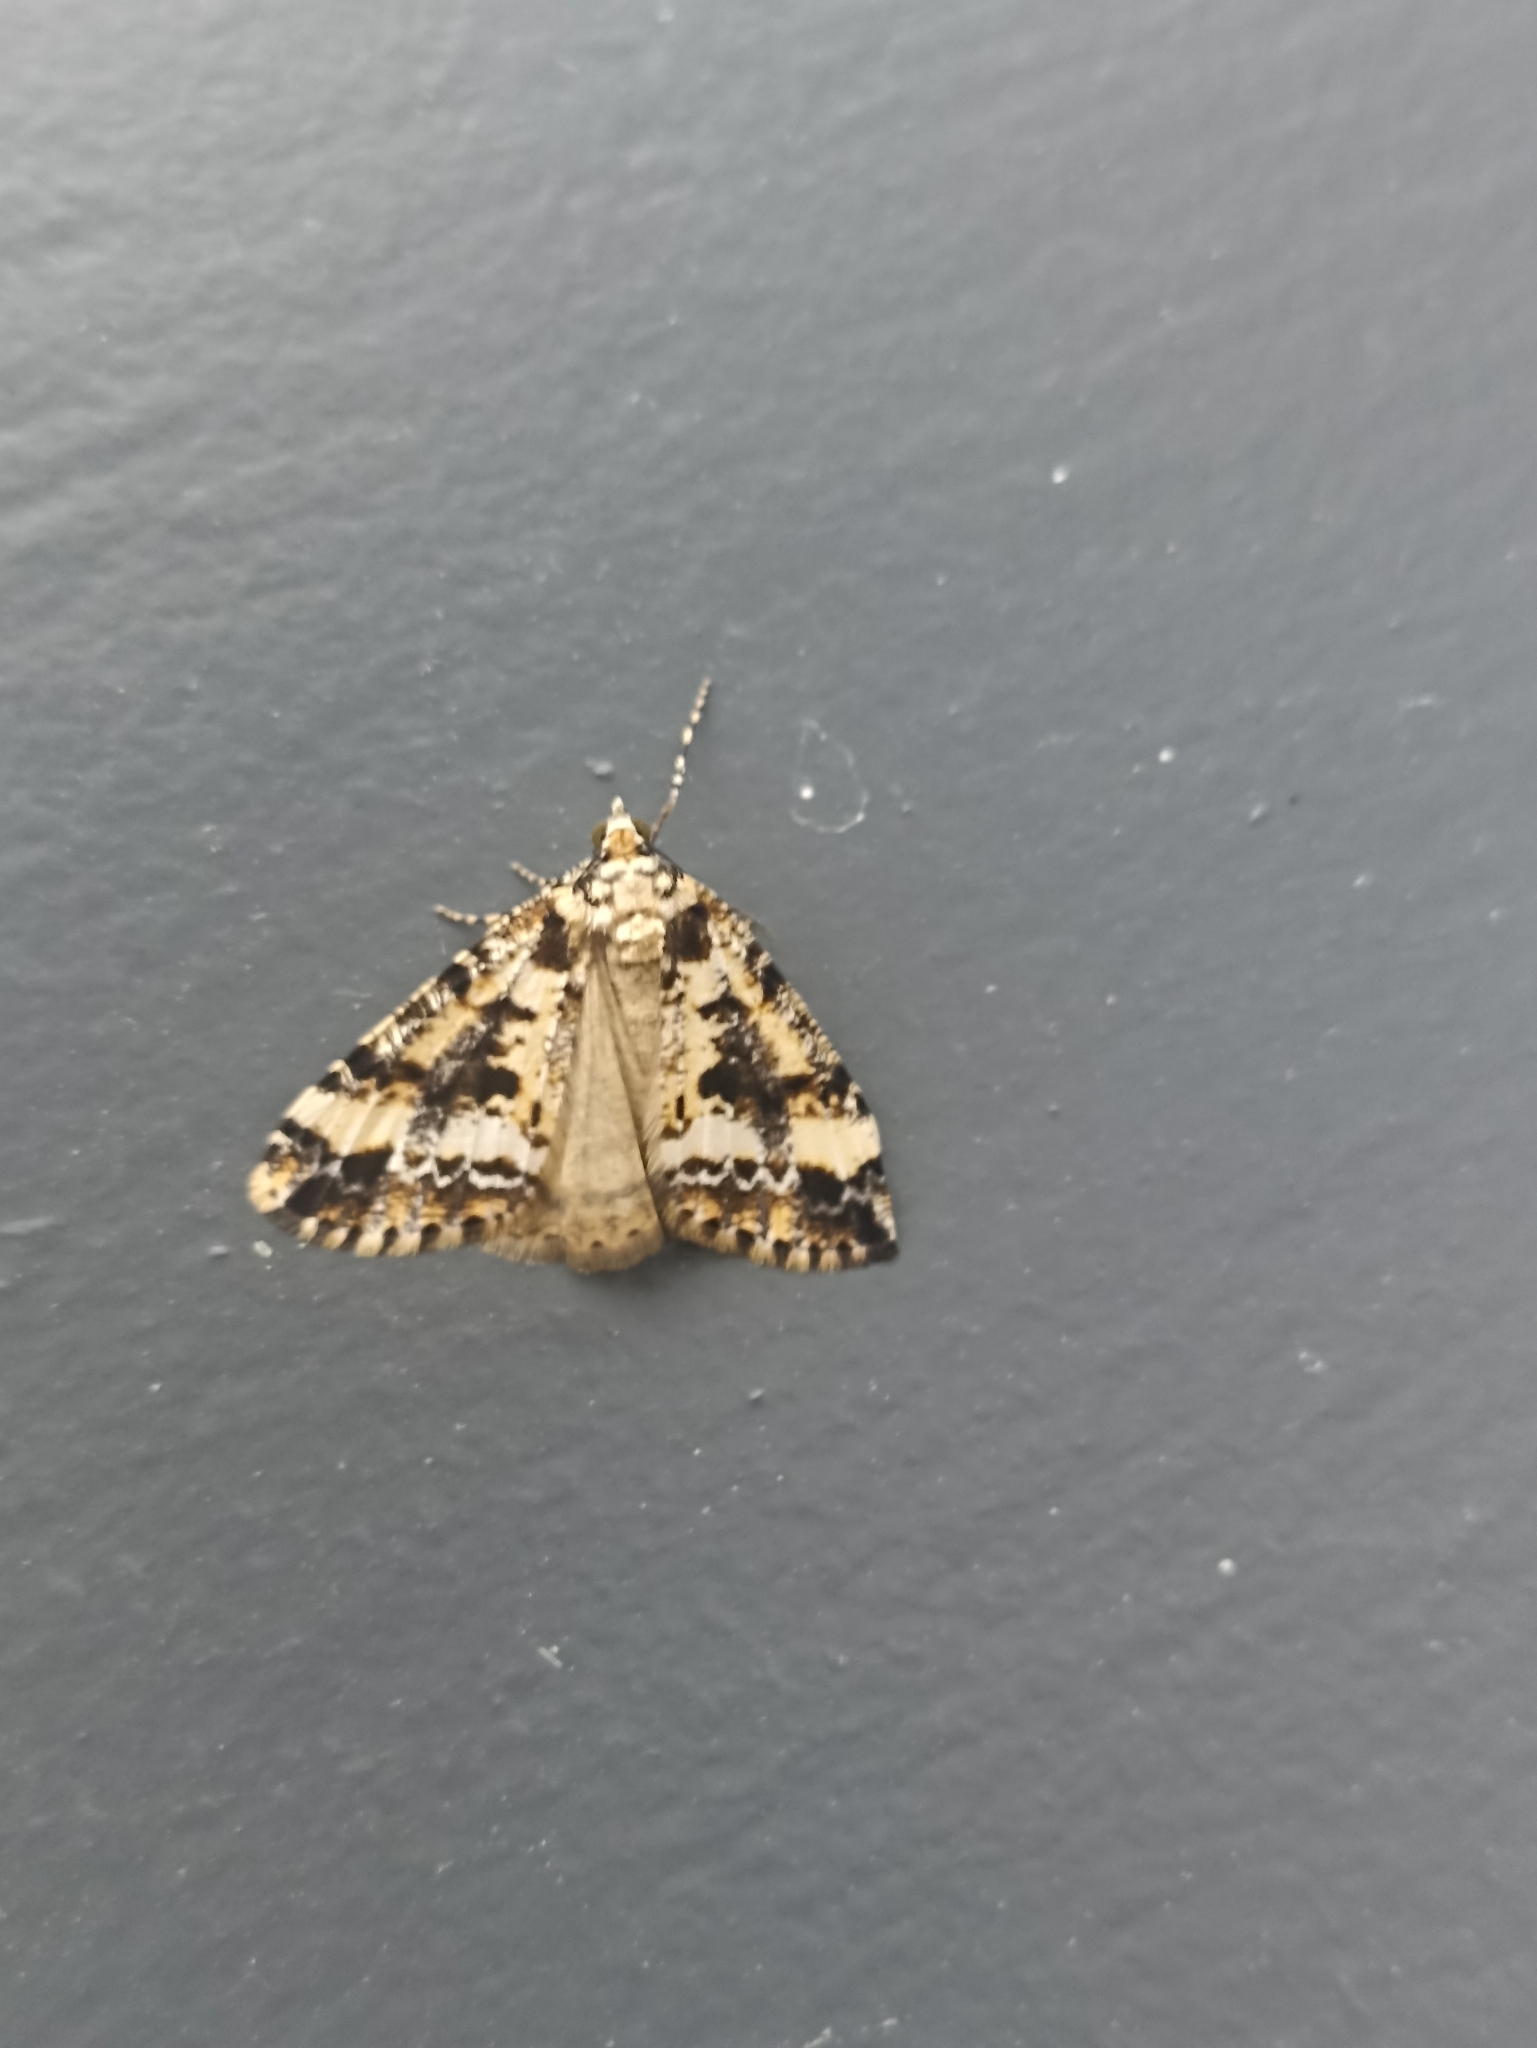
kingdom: Animalia
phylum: Arthropoda
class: Insecta
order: Lepidoptera
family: Geometridae
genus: Pseudocoremia
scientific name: Pseudocoremia leucelaea
